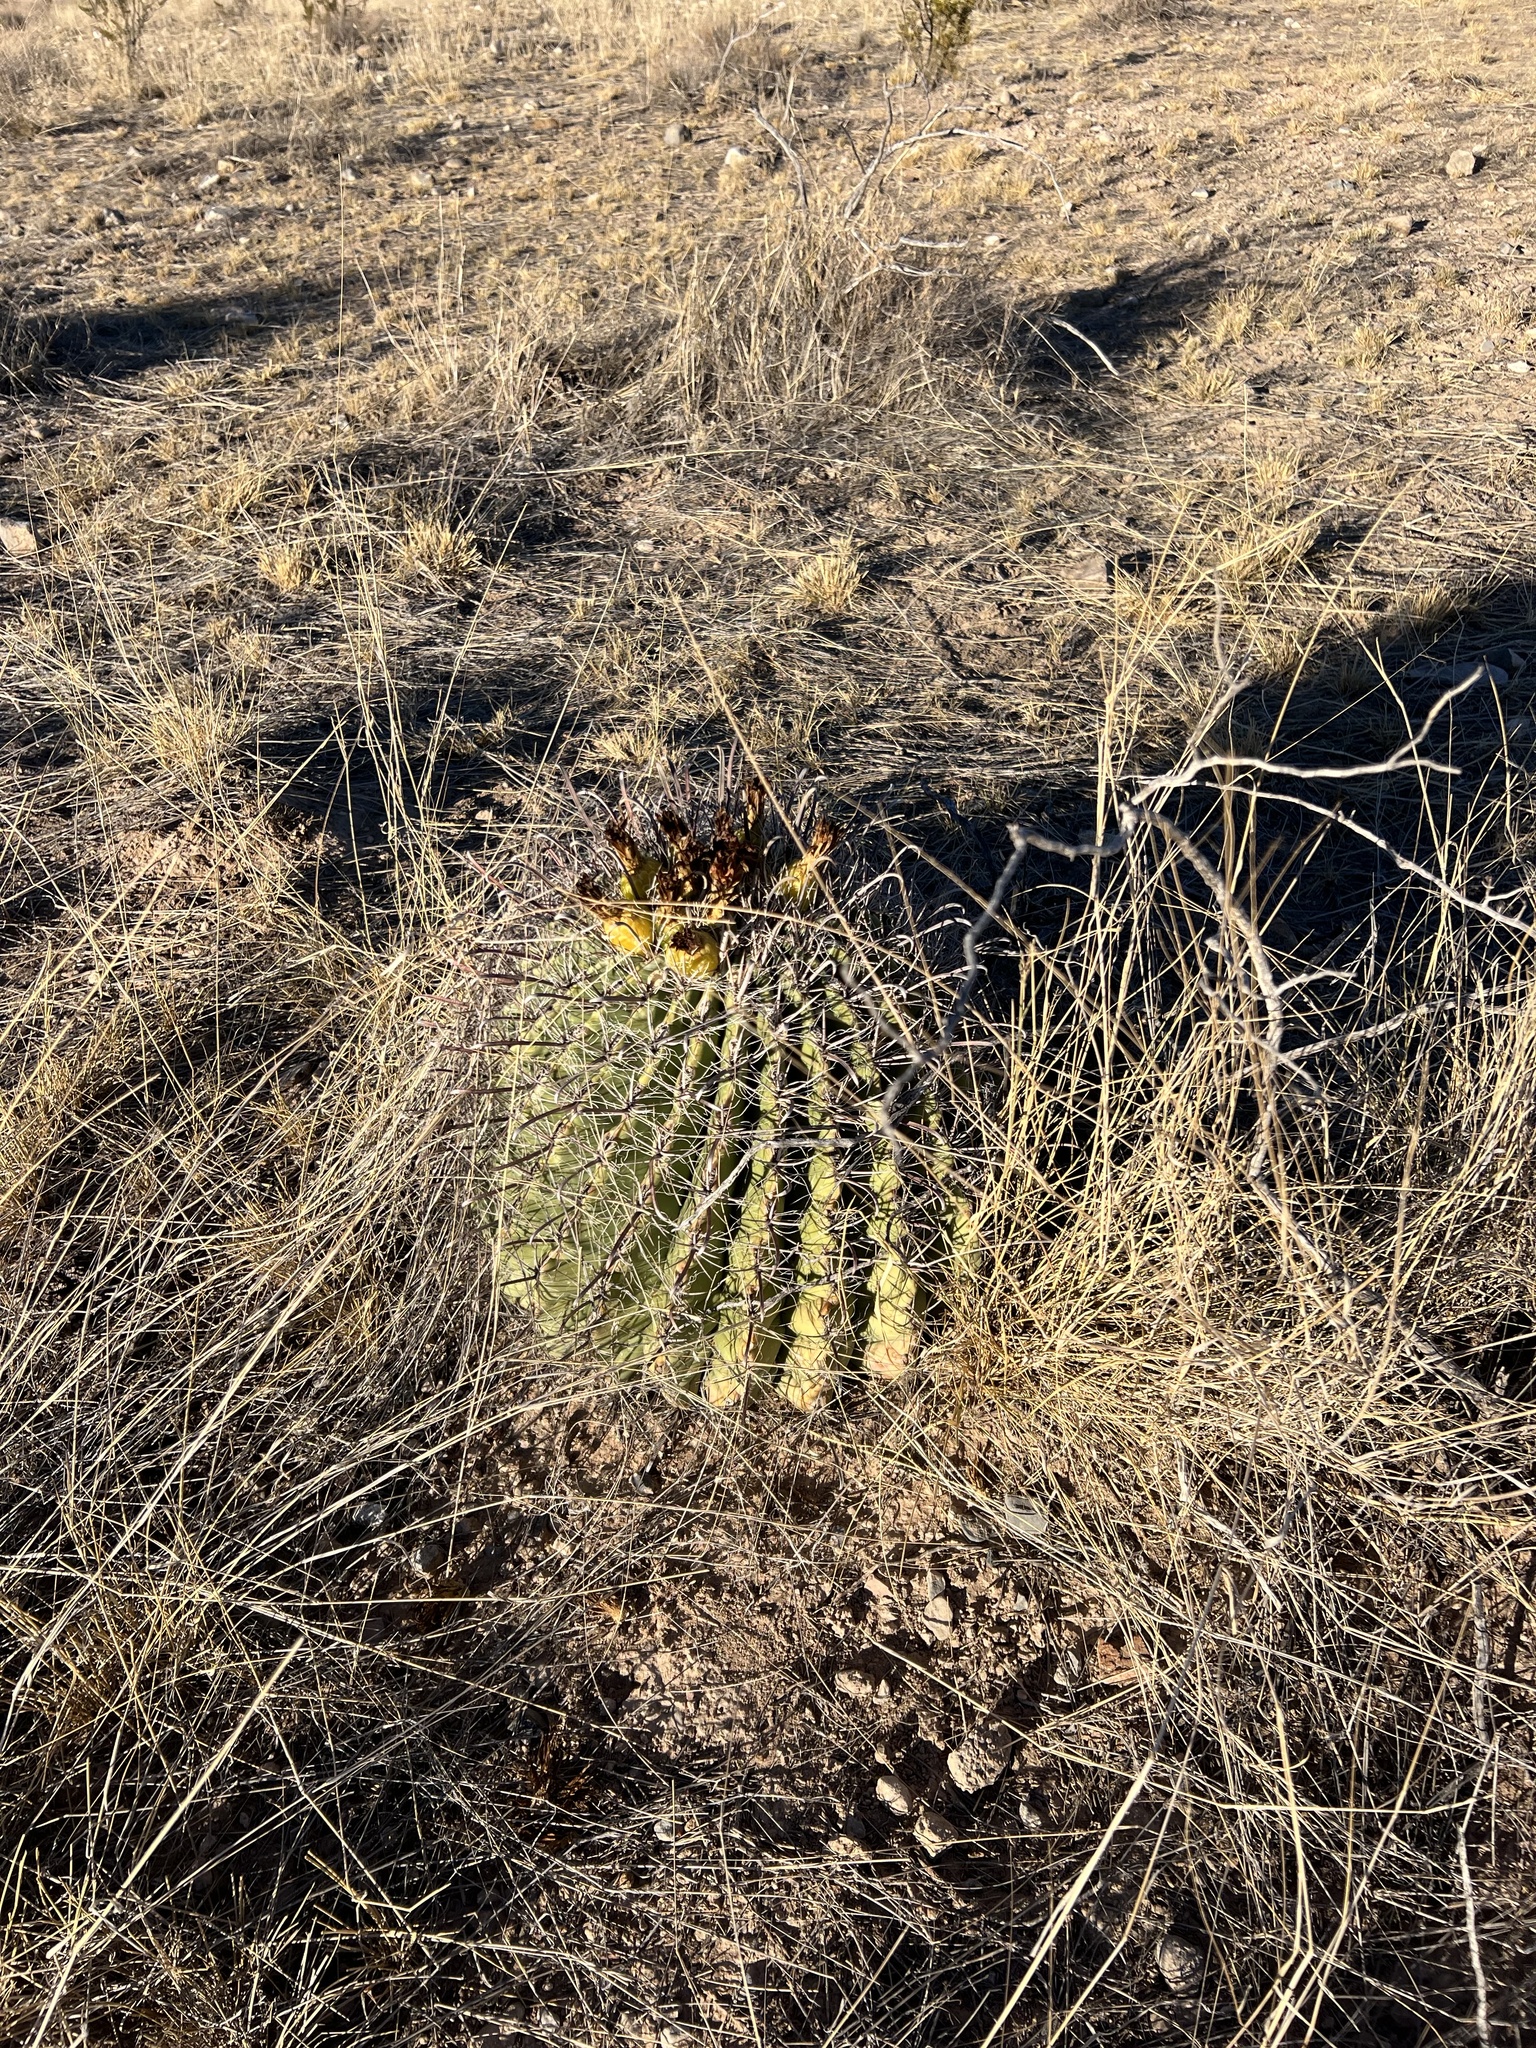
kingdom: Plantae
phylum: Tracheophyta
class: Magnoliopsida
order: Caryophyllales
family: Cactaceae
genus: Ferocactus
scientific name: Ferocactus wislizeni
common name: Candy barrel cactus
